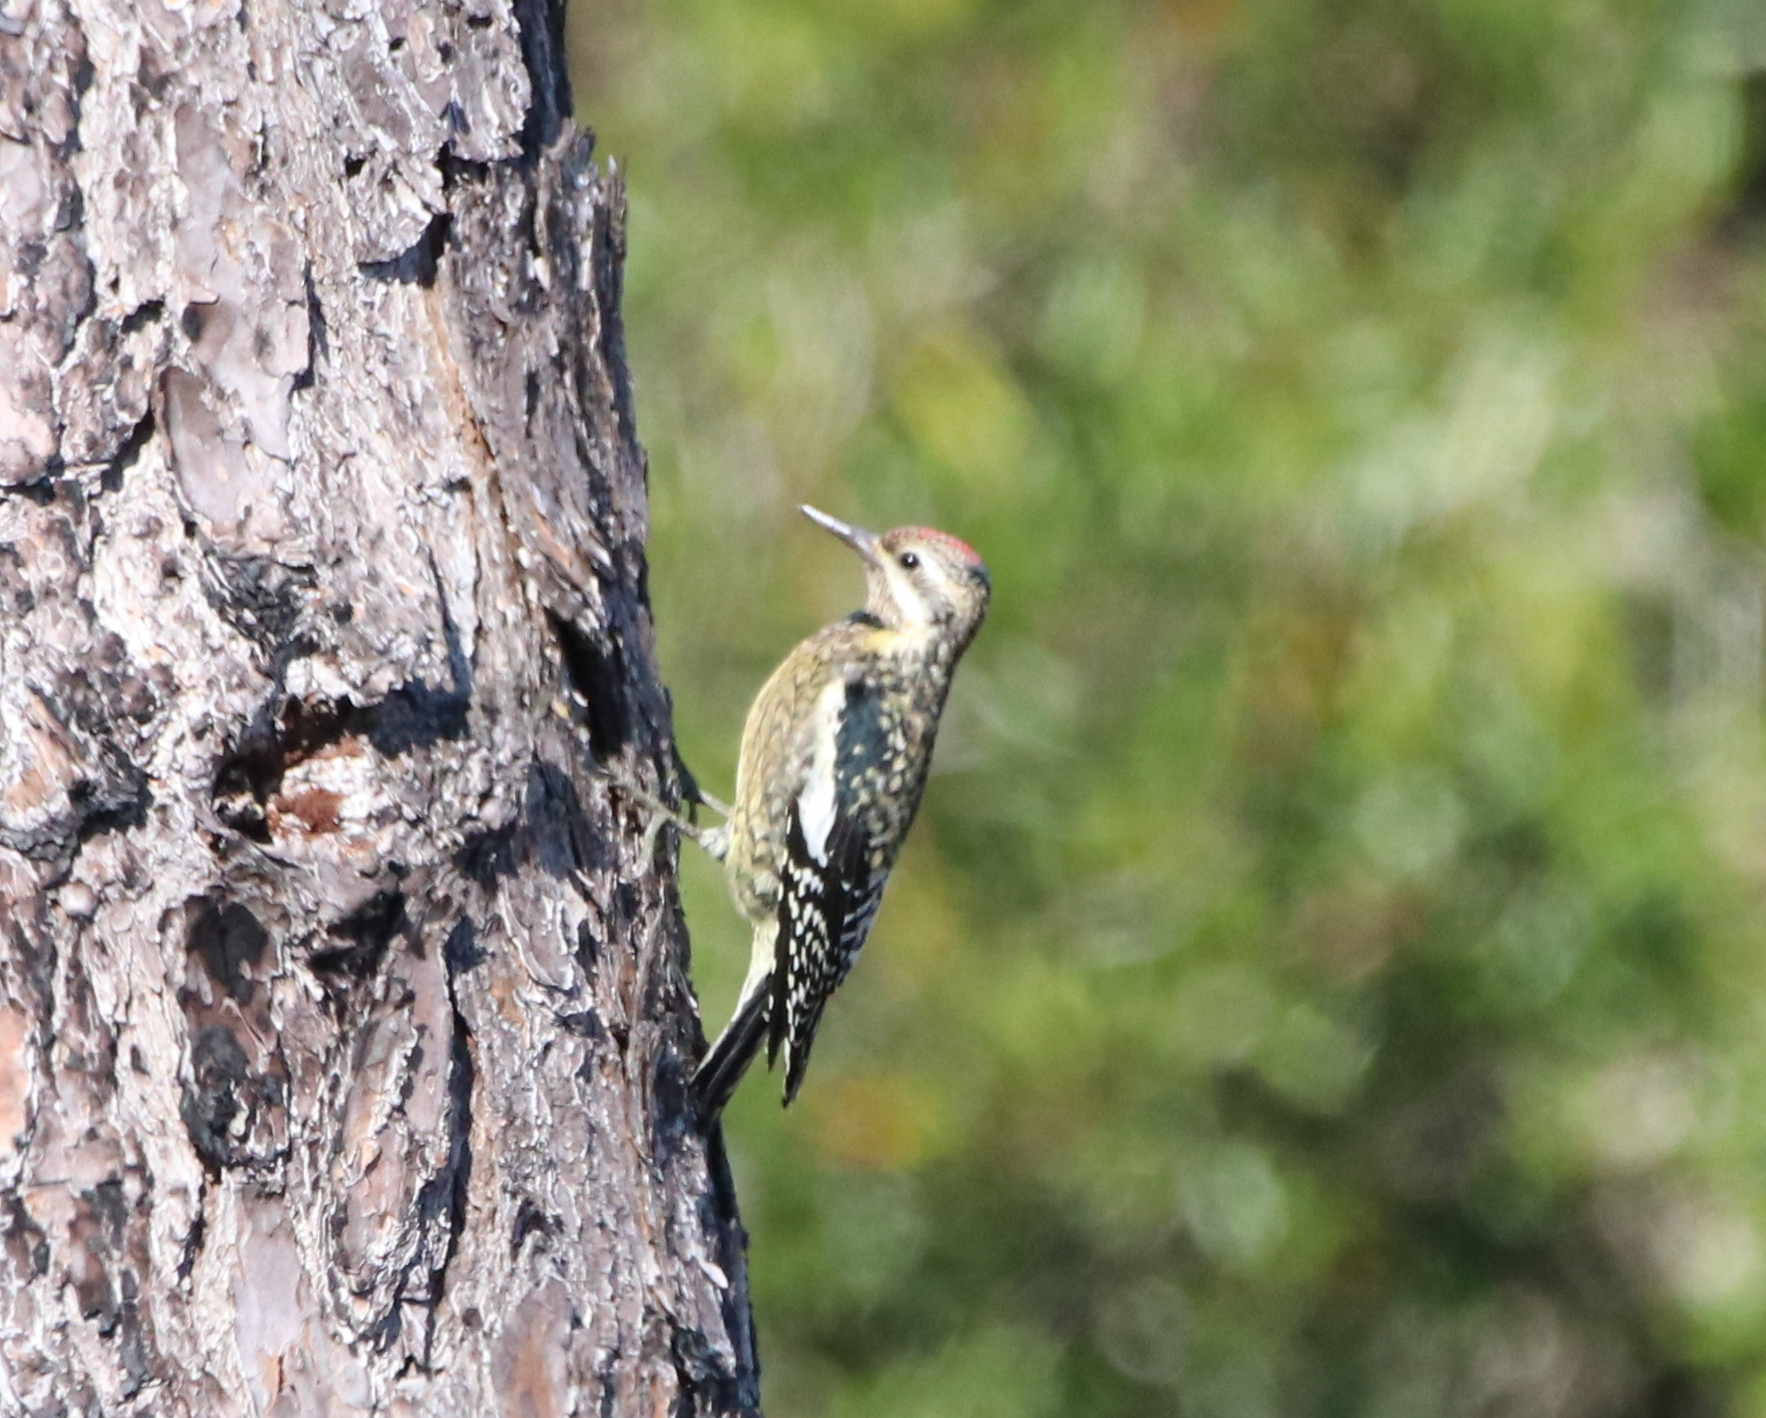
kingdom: Animalia
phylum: Chordata
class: Aves
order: Piciformes
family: Picidae
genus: Sphyrapicus
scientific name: Sphyrapicus varius
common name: Yellow-bellied sapsucker
